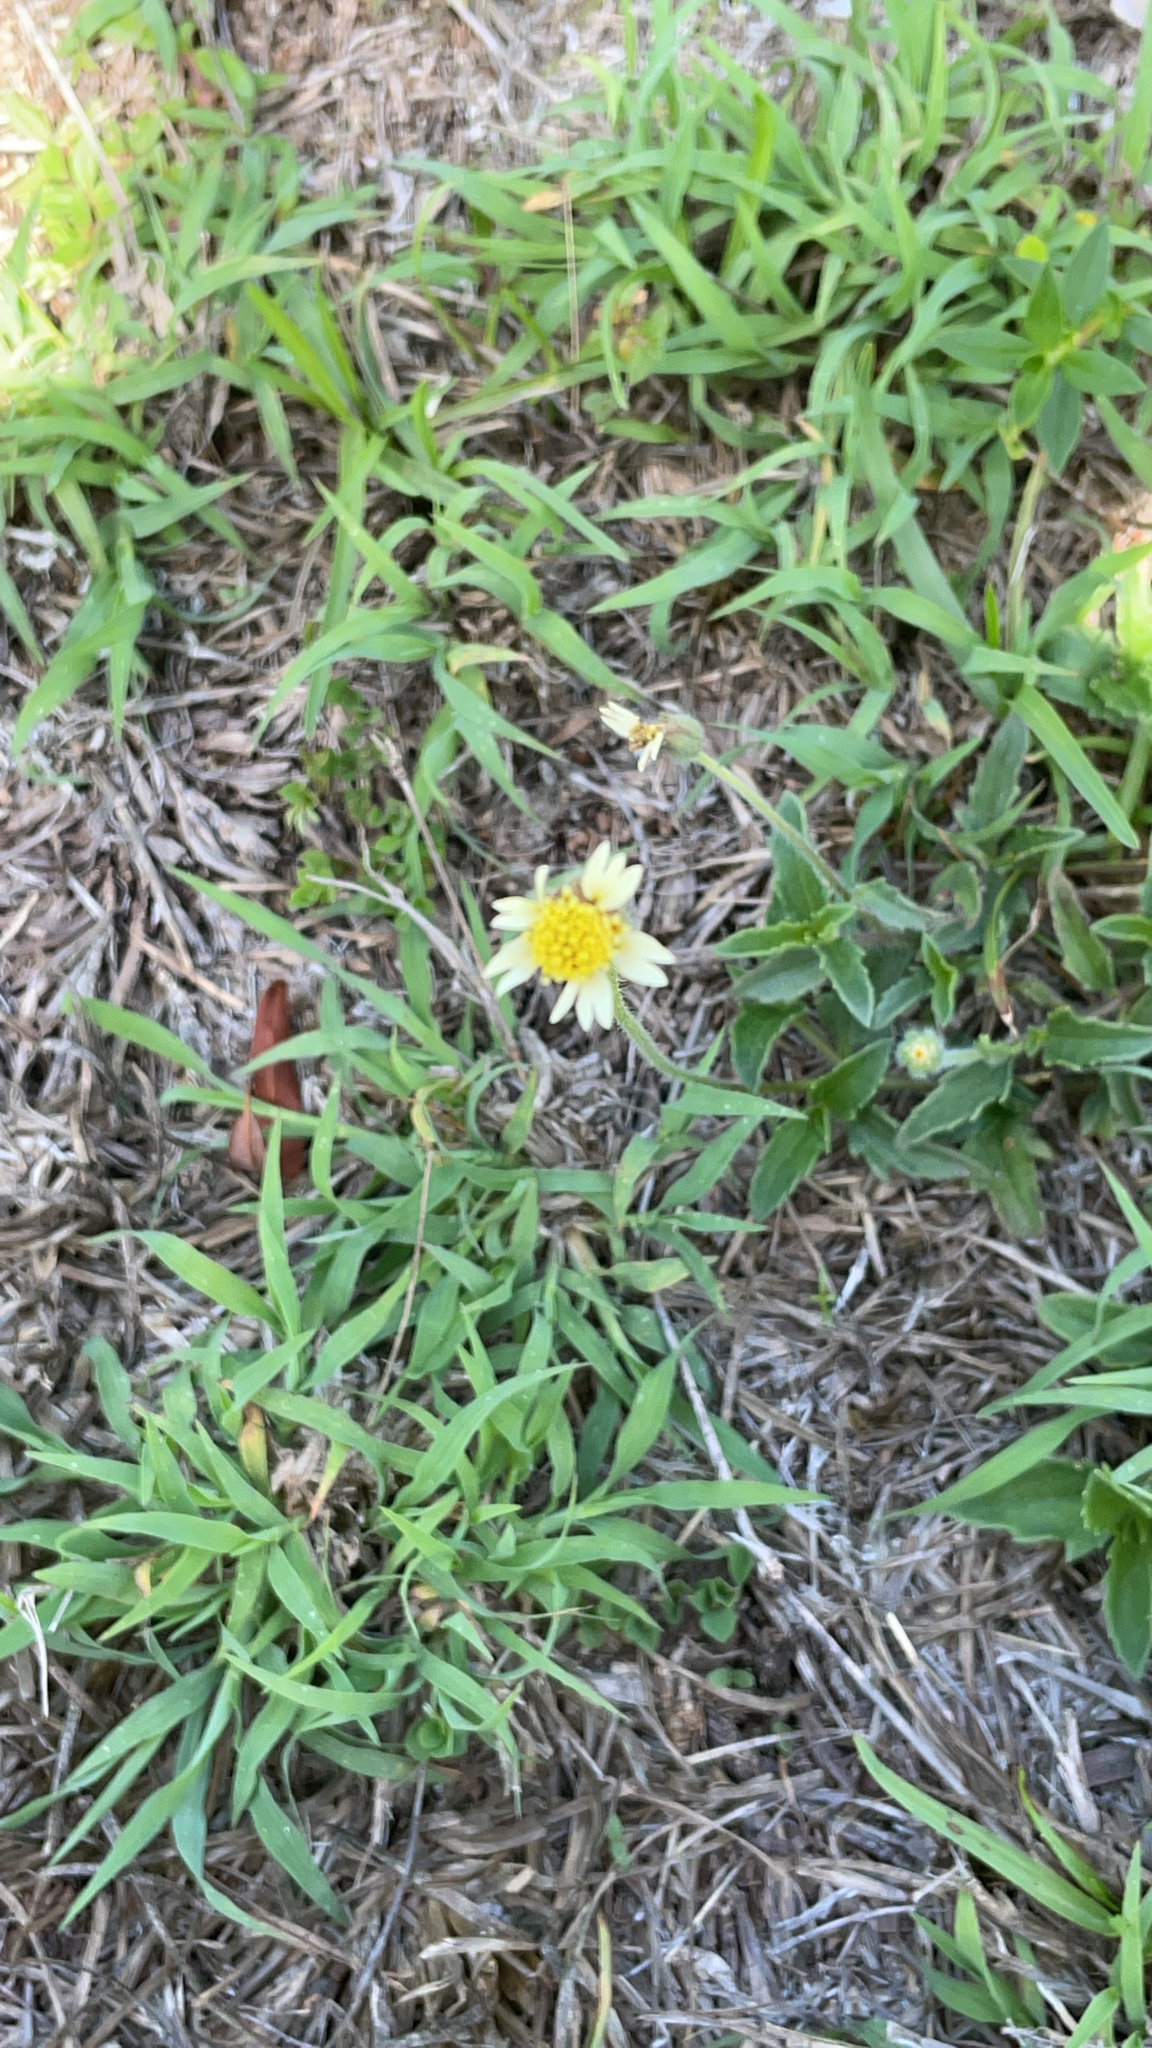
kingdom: Plantae
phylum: Tracheophyta
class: Magnoliopsida
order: Asterales
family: Asteraceae
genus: Tridax
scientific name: Tridax procumbens
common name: Coatbuttons
